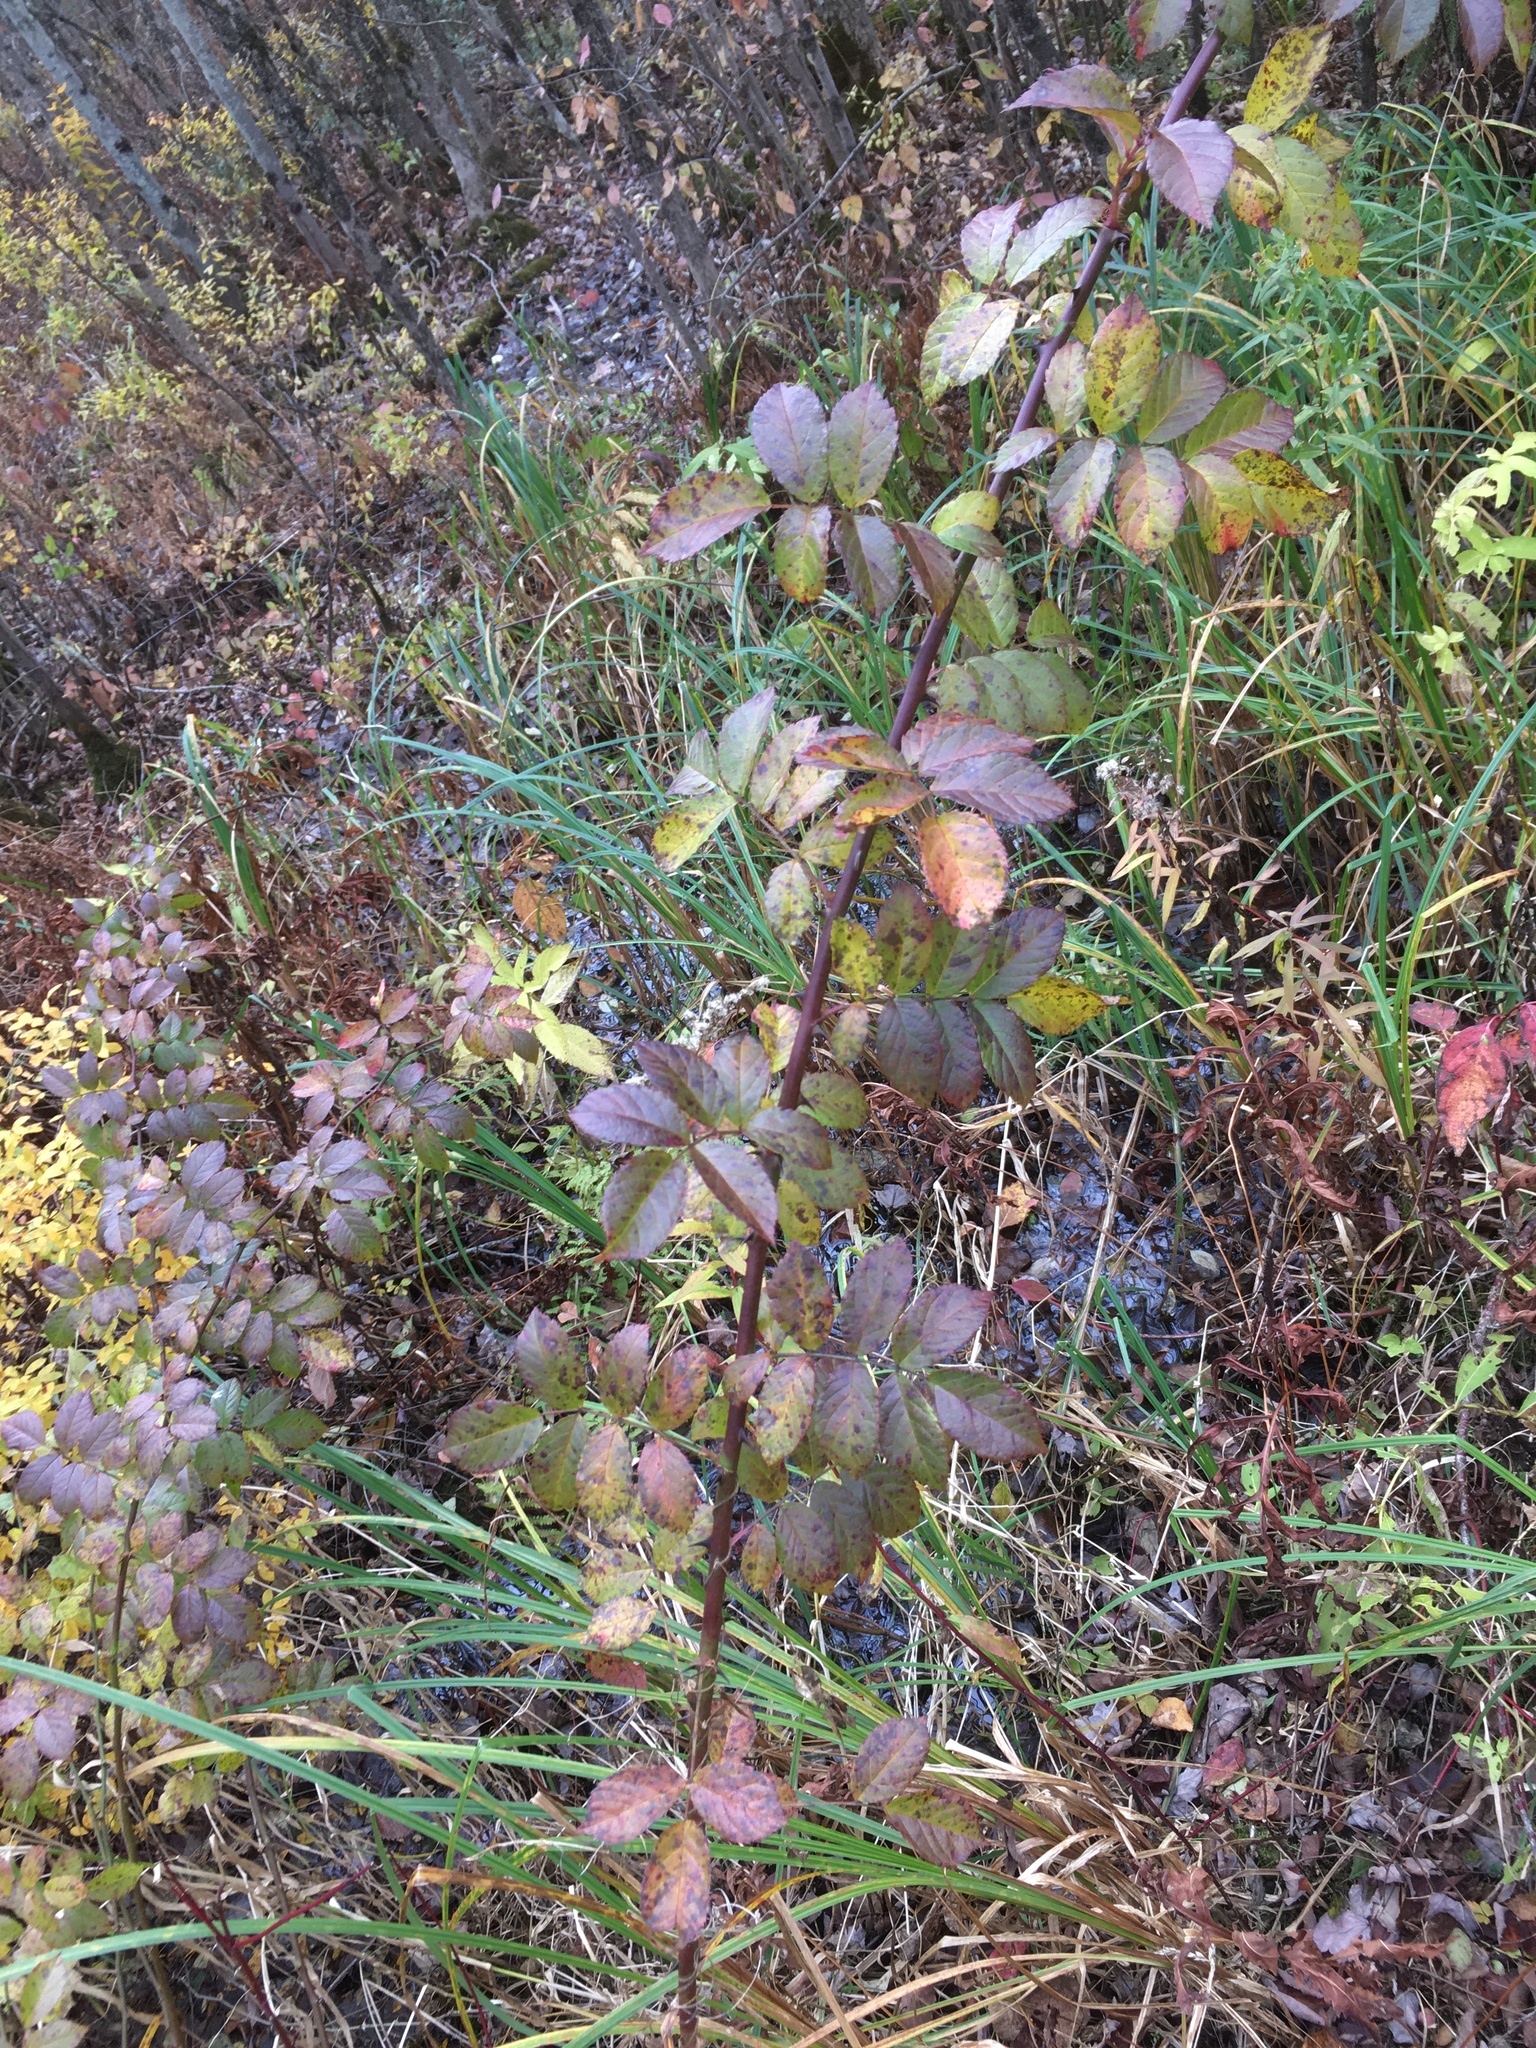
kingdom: Plantae
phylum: Tracheophyta
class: Magnoliopsida
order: Rosales
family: Rosaceae
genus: Rosa
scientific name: Rosa multiflora
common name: Multiflora rose
